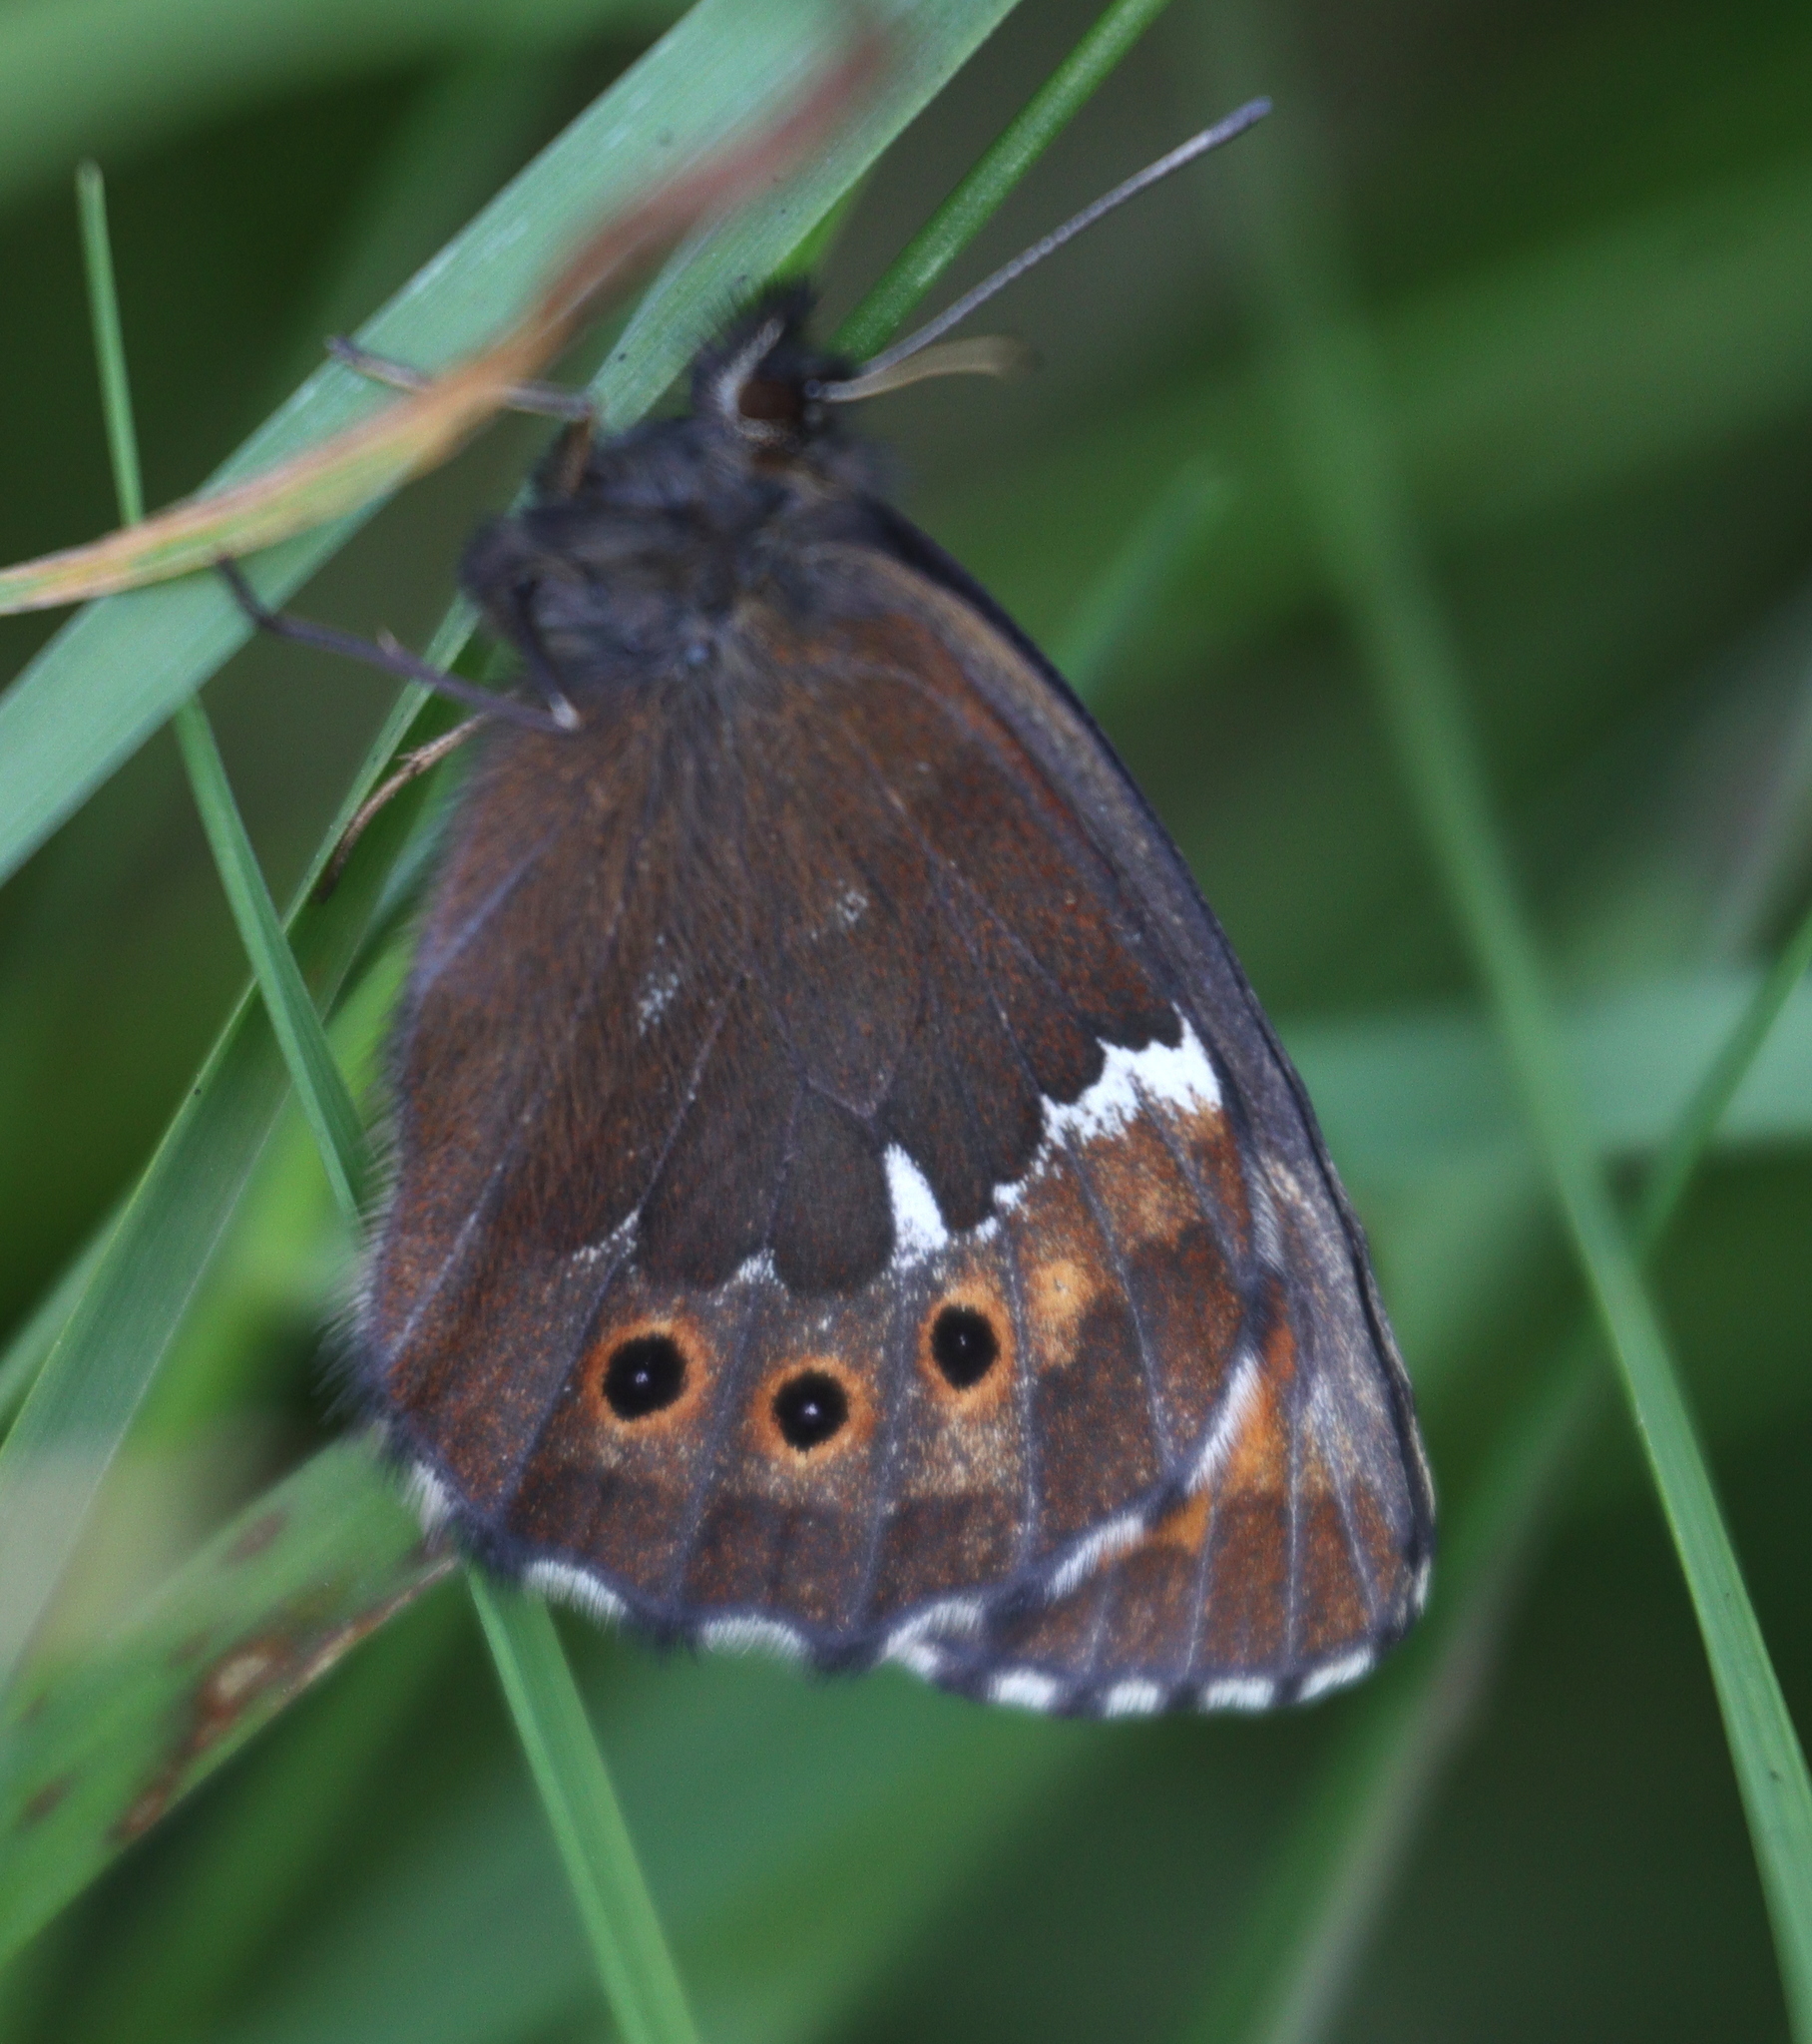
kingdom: Animalia
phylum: Arthropoda
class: Insecta
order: Lepidoptera
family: Nymphalidae
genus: Erebia
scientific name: Erebia ligea
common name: Arran brown
